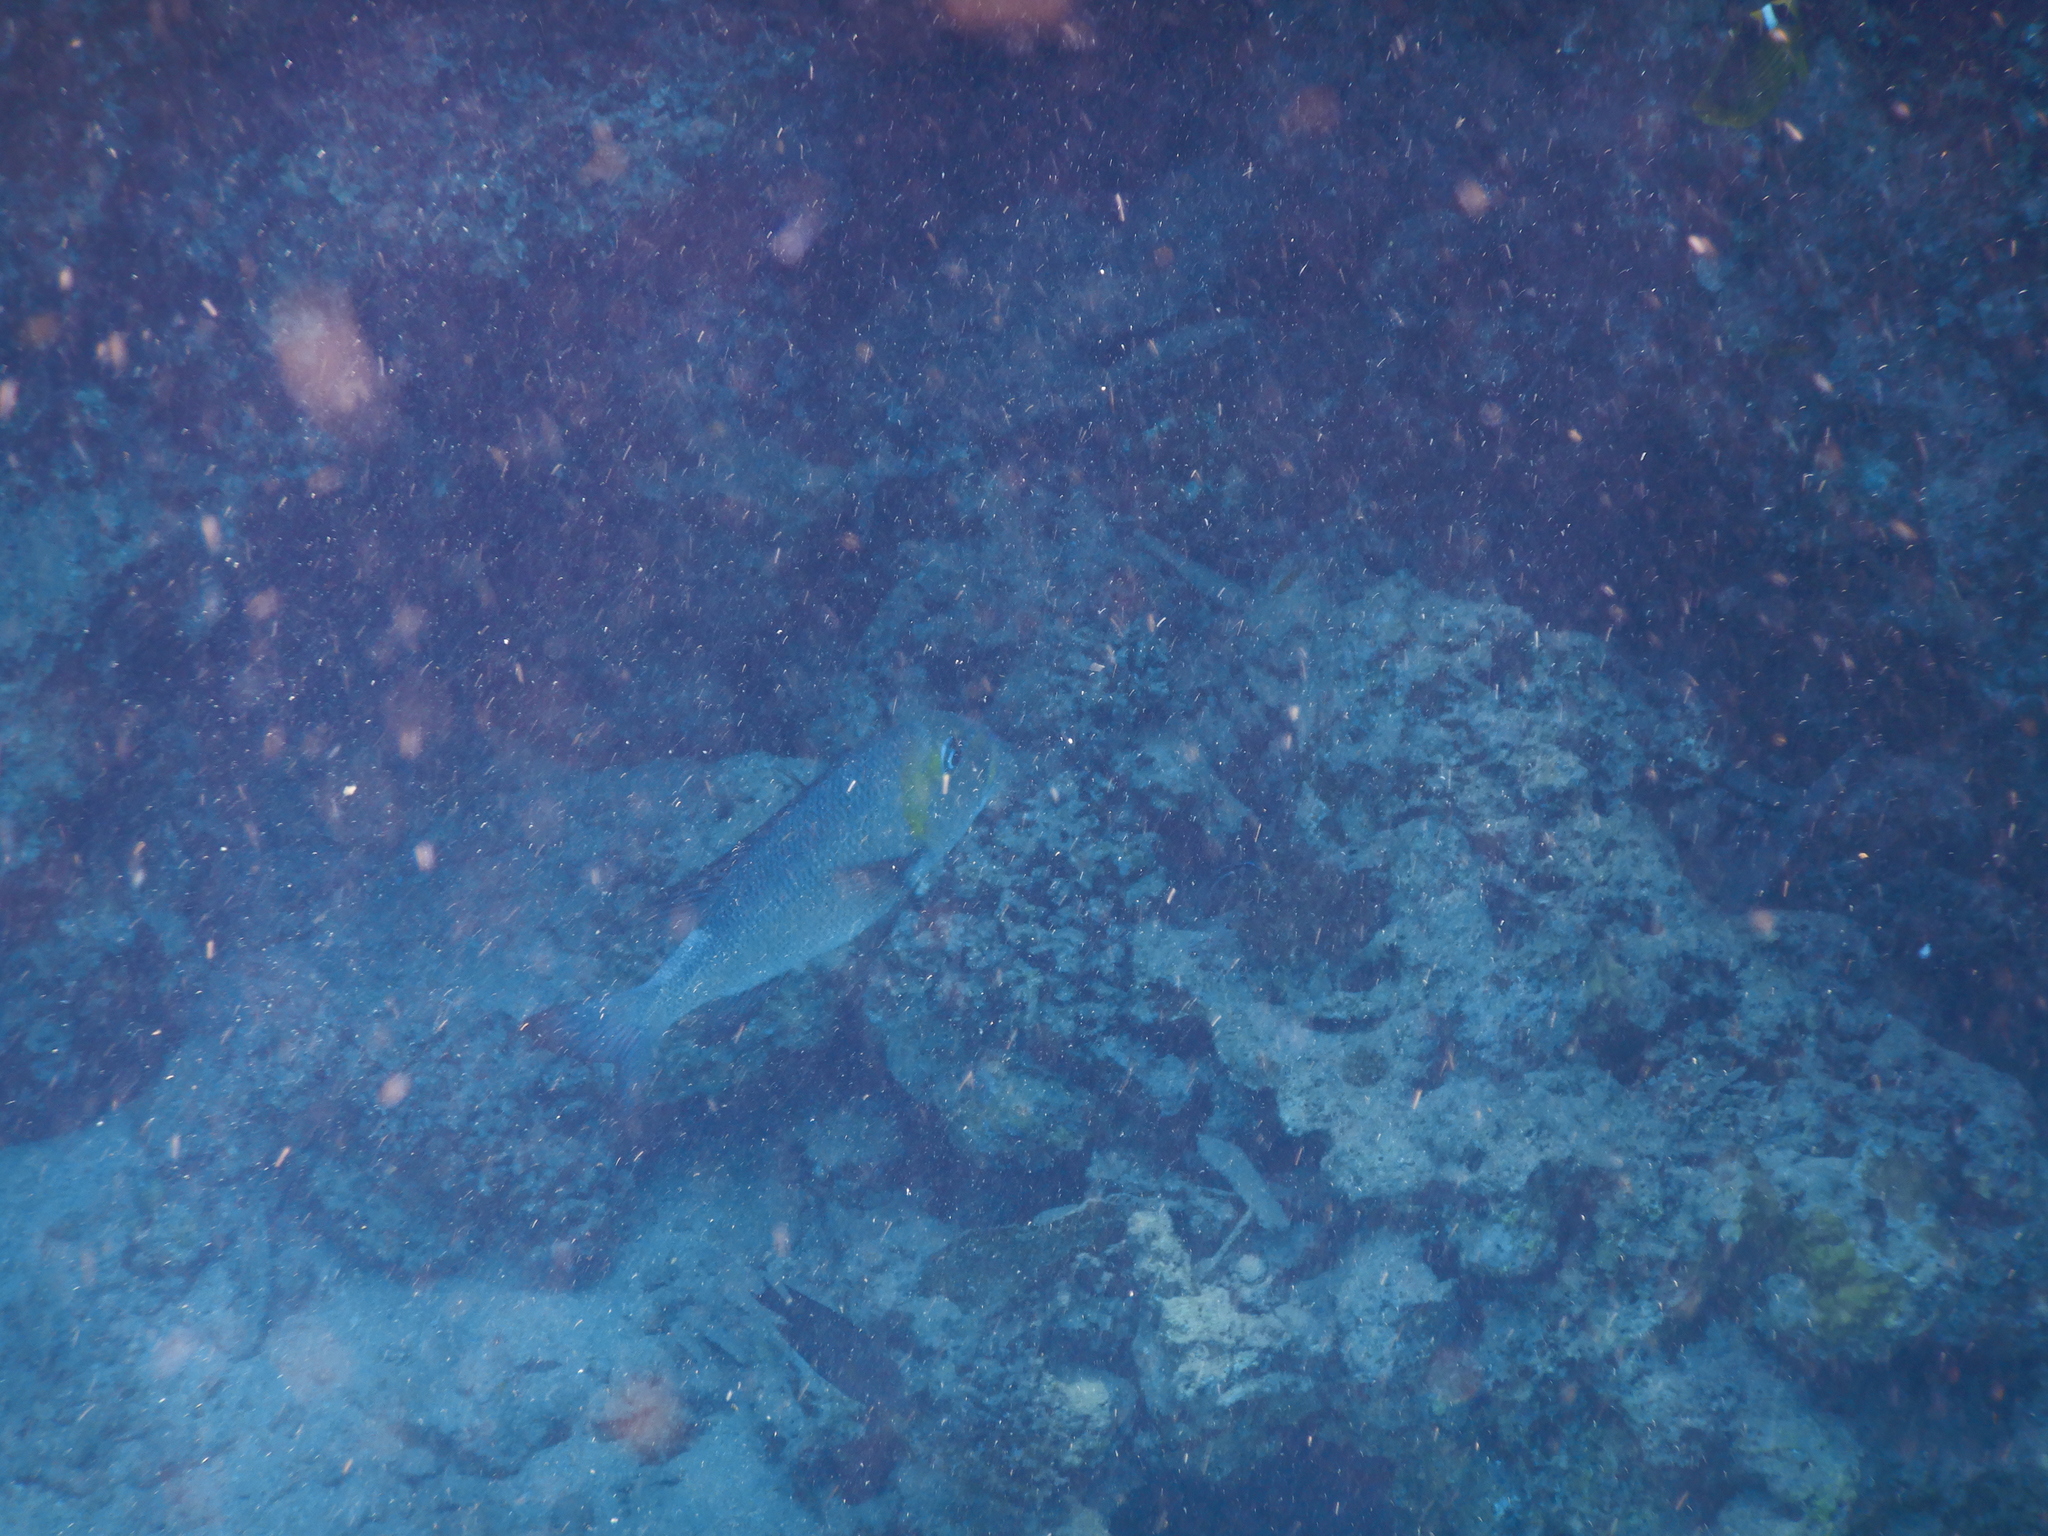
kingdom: Animalia
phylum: Chordata
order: Perciformes
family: Lethrinidae
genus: Monotaxis
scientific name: Monotaxis grandoculis
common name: Bigeye emperor
